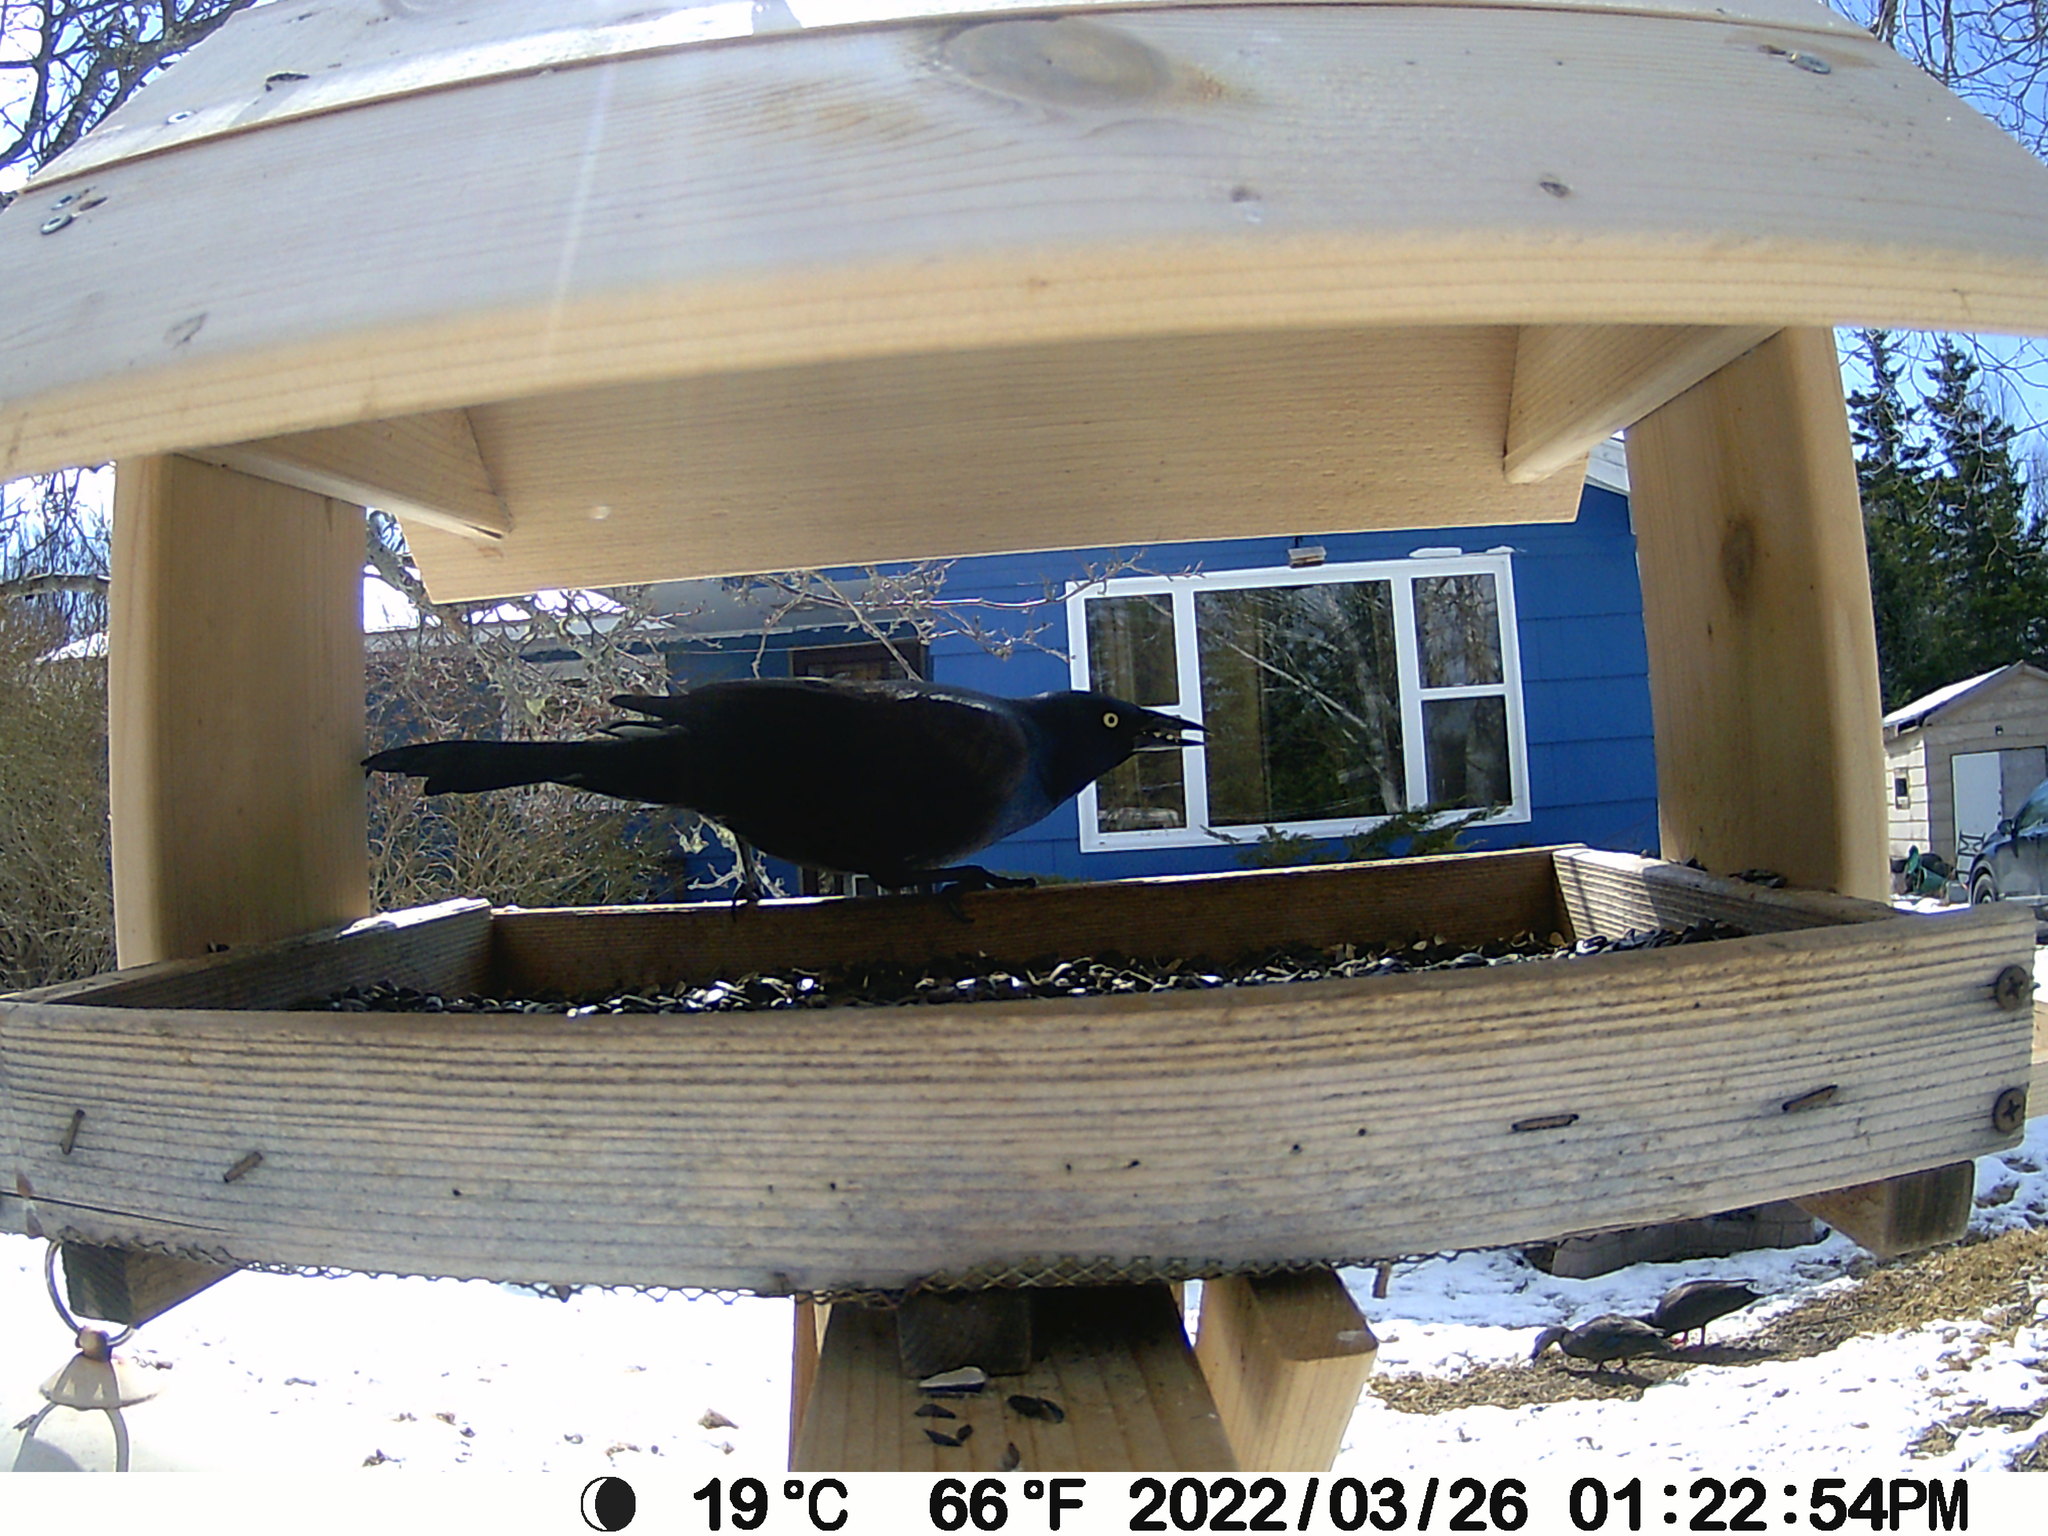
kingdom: Animalia
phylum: Chordata
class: Aves
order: Passeriformes
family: Icteridae
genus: Quiscalus
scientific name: Quiscalus quiscula
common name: Common grackle
